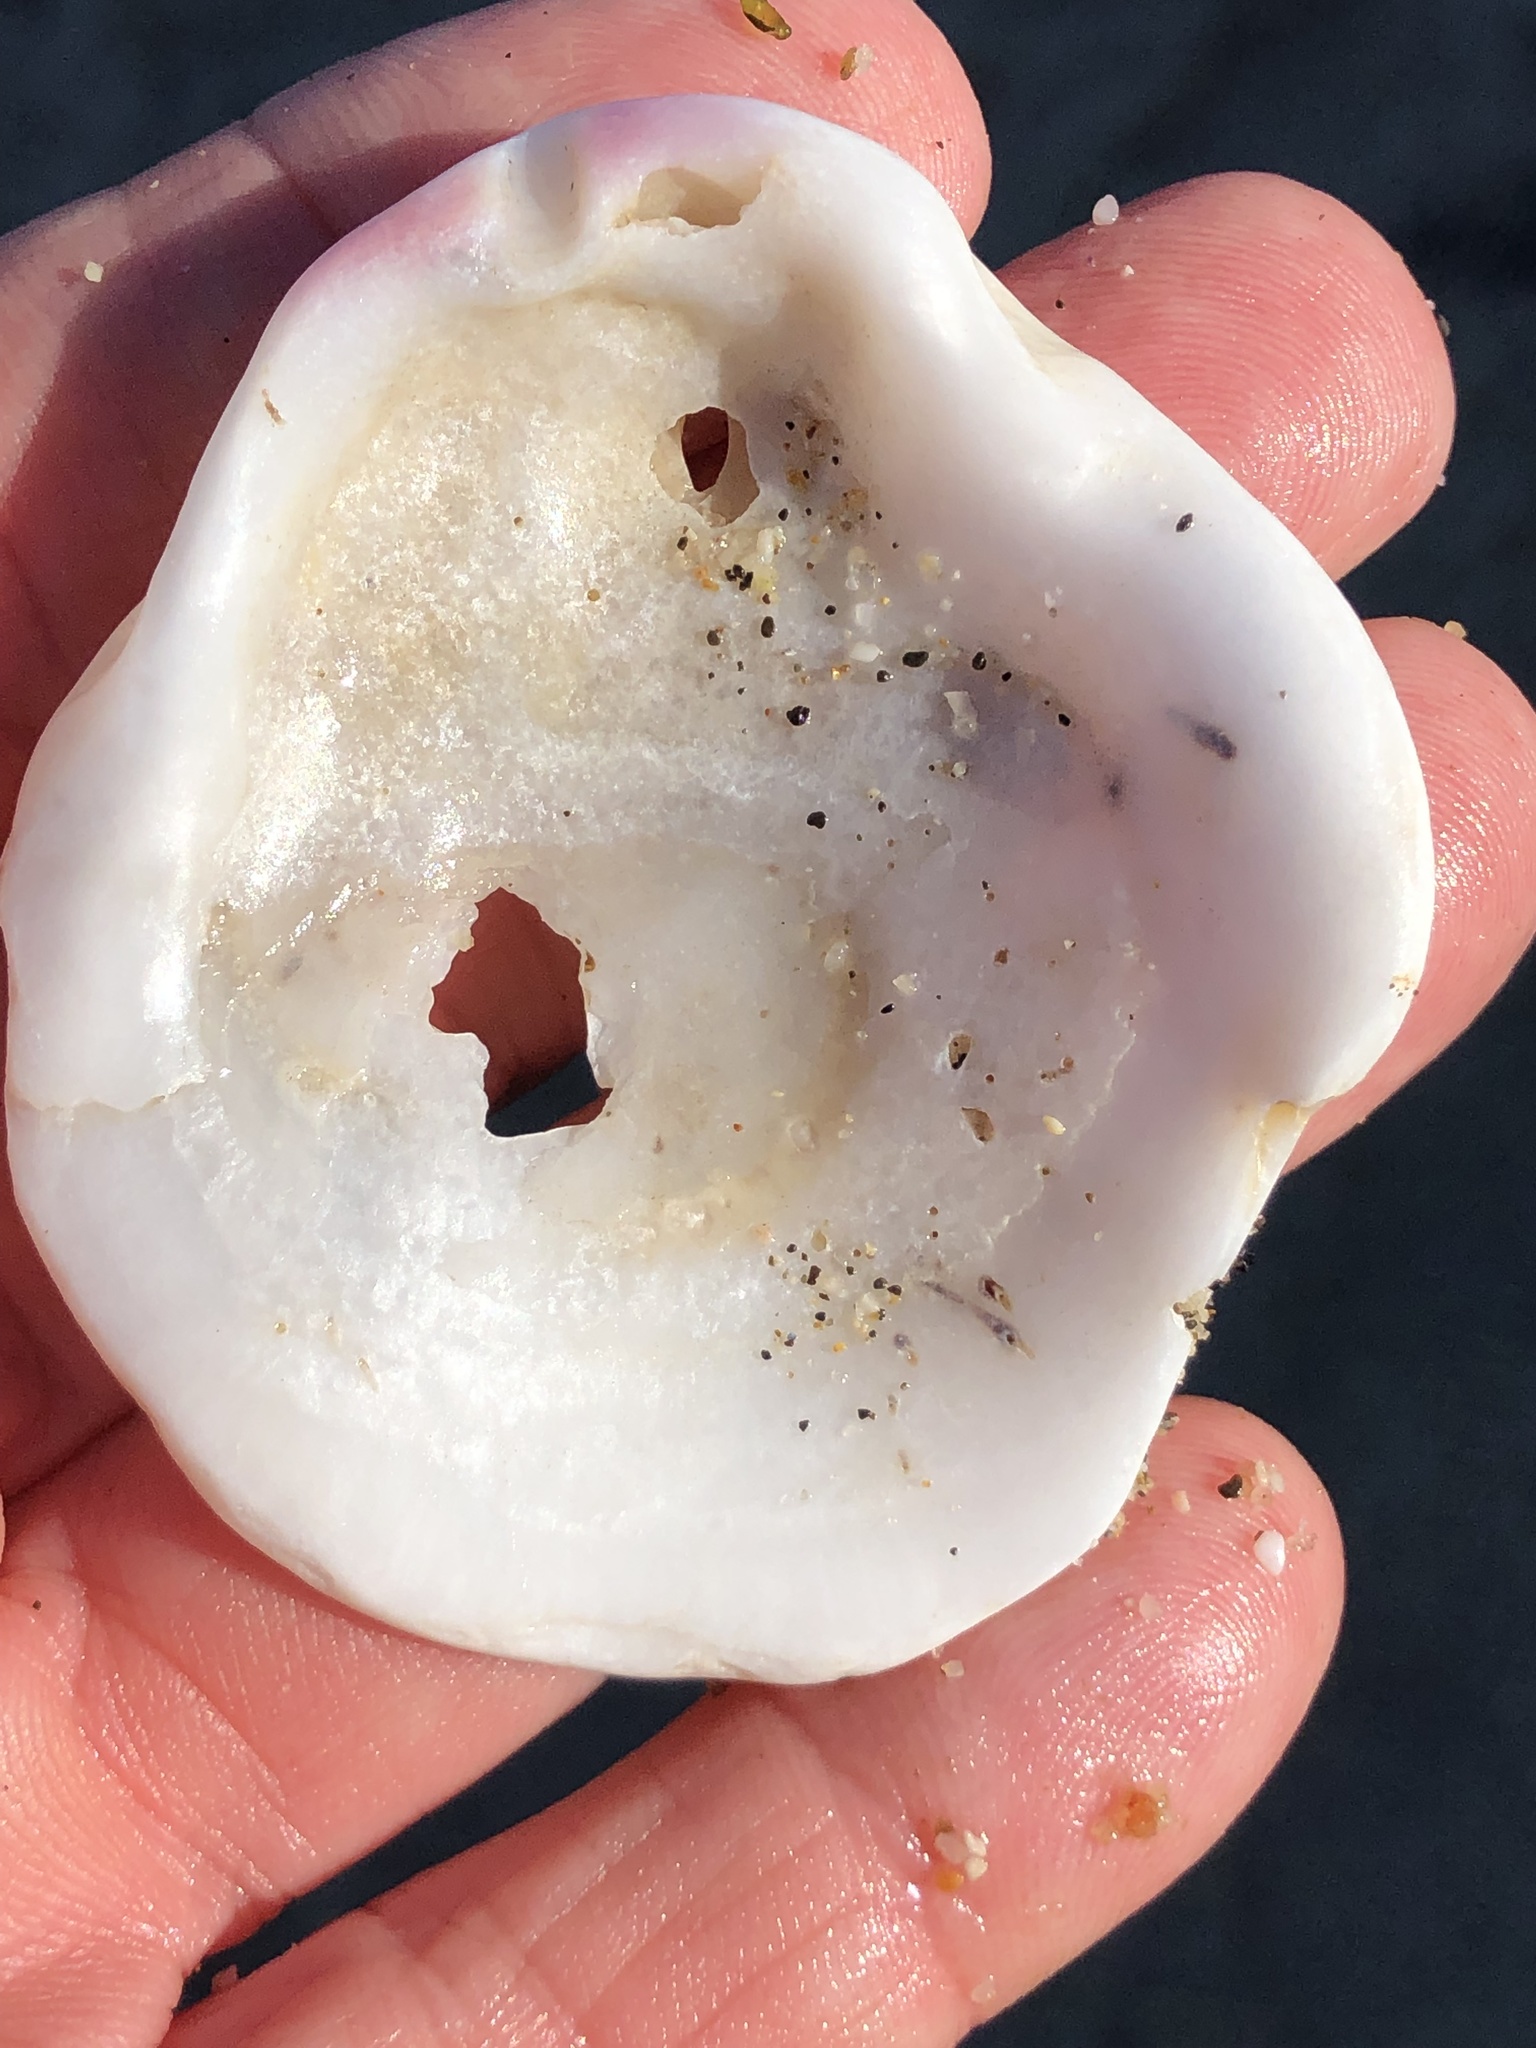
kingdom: Animalia
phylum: Mollusca
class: Bivalvia
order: Pectinida
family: Pectinidae
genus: Crassadoma
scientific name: Crassadoma gigantea
